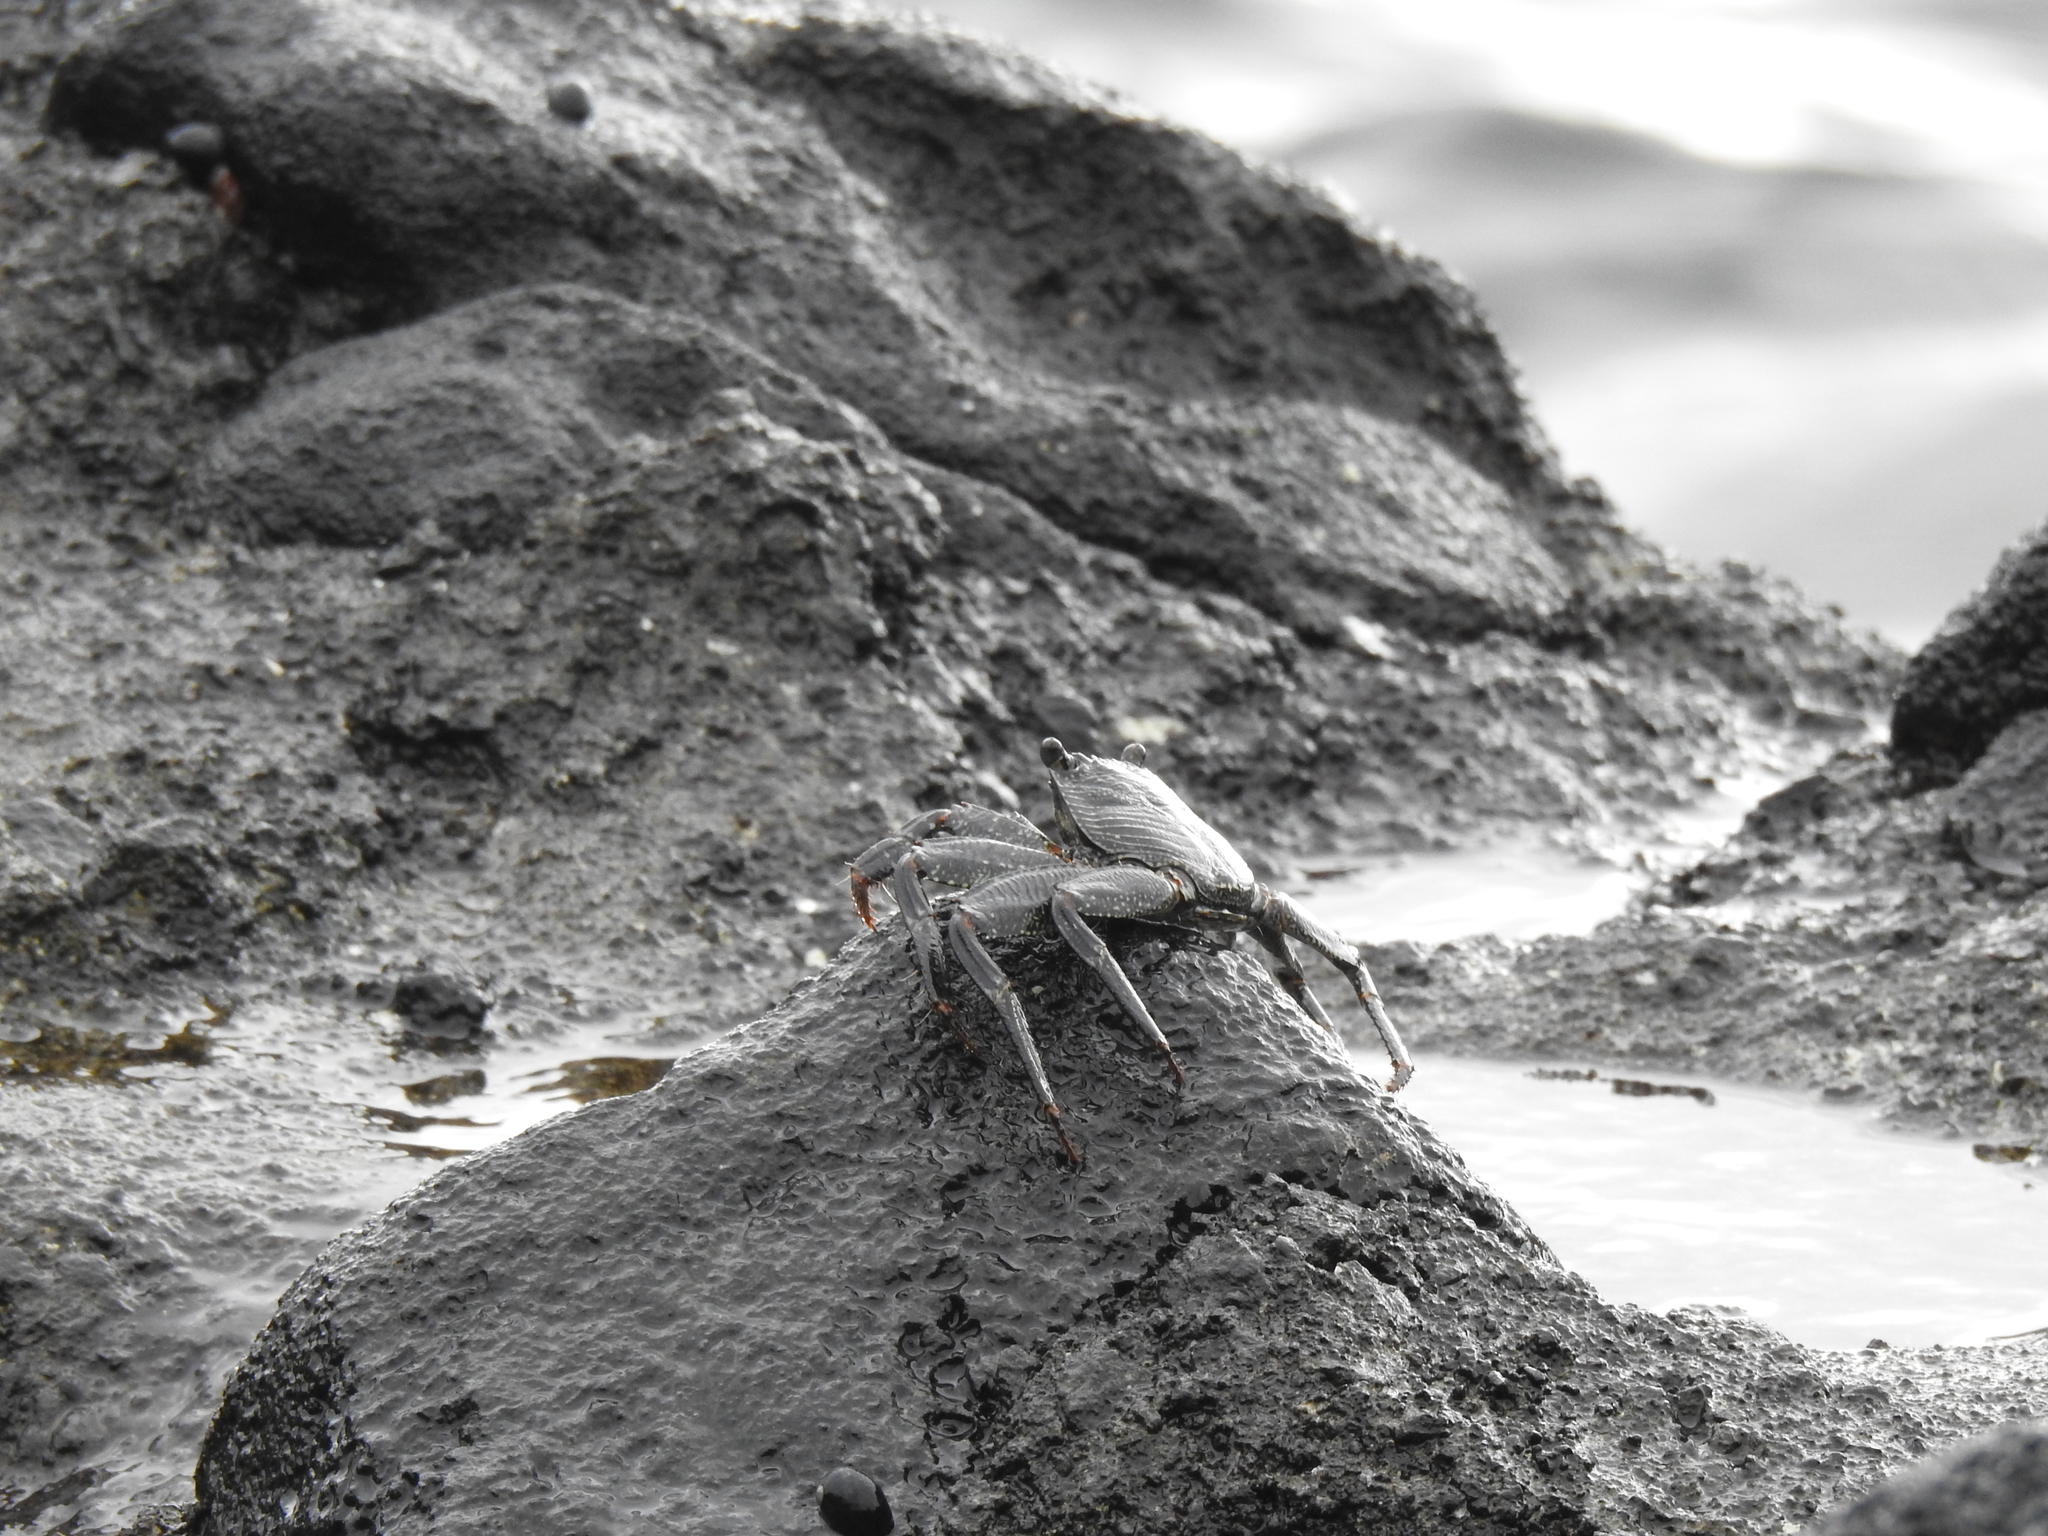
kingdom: Animalia
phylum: Arthropoda
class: Malacostraca
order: Decapoda
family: Grapsidae
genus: Grapsus
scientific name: Grapsus tenuicrustatus
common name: Natal lightfoot crab
